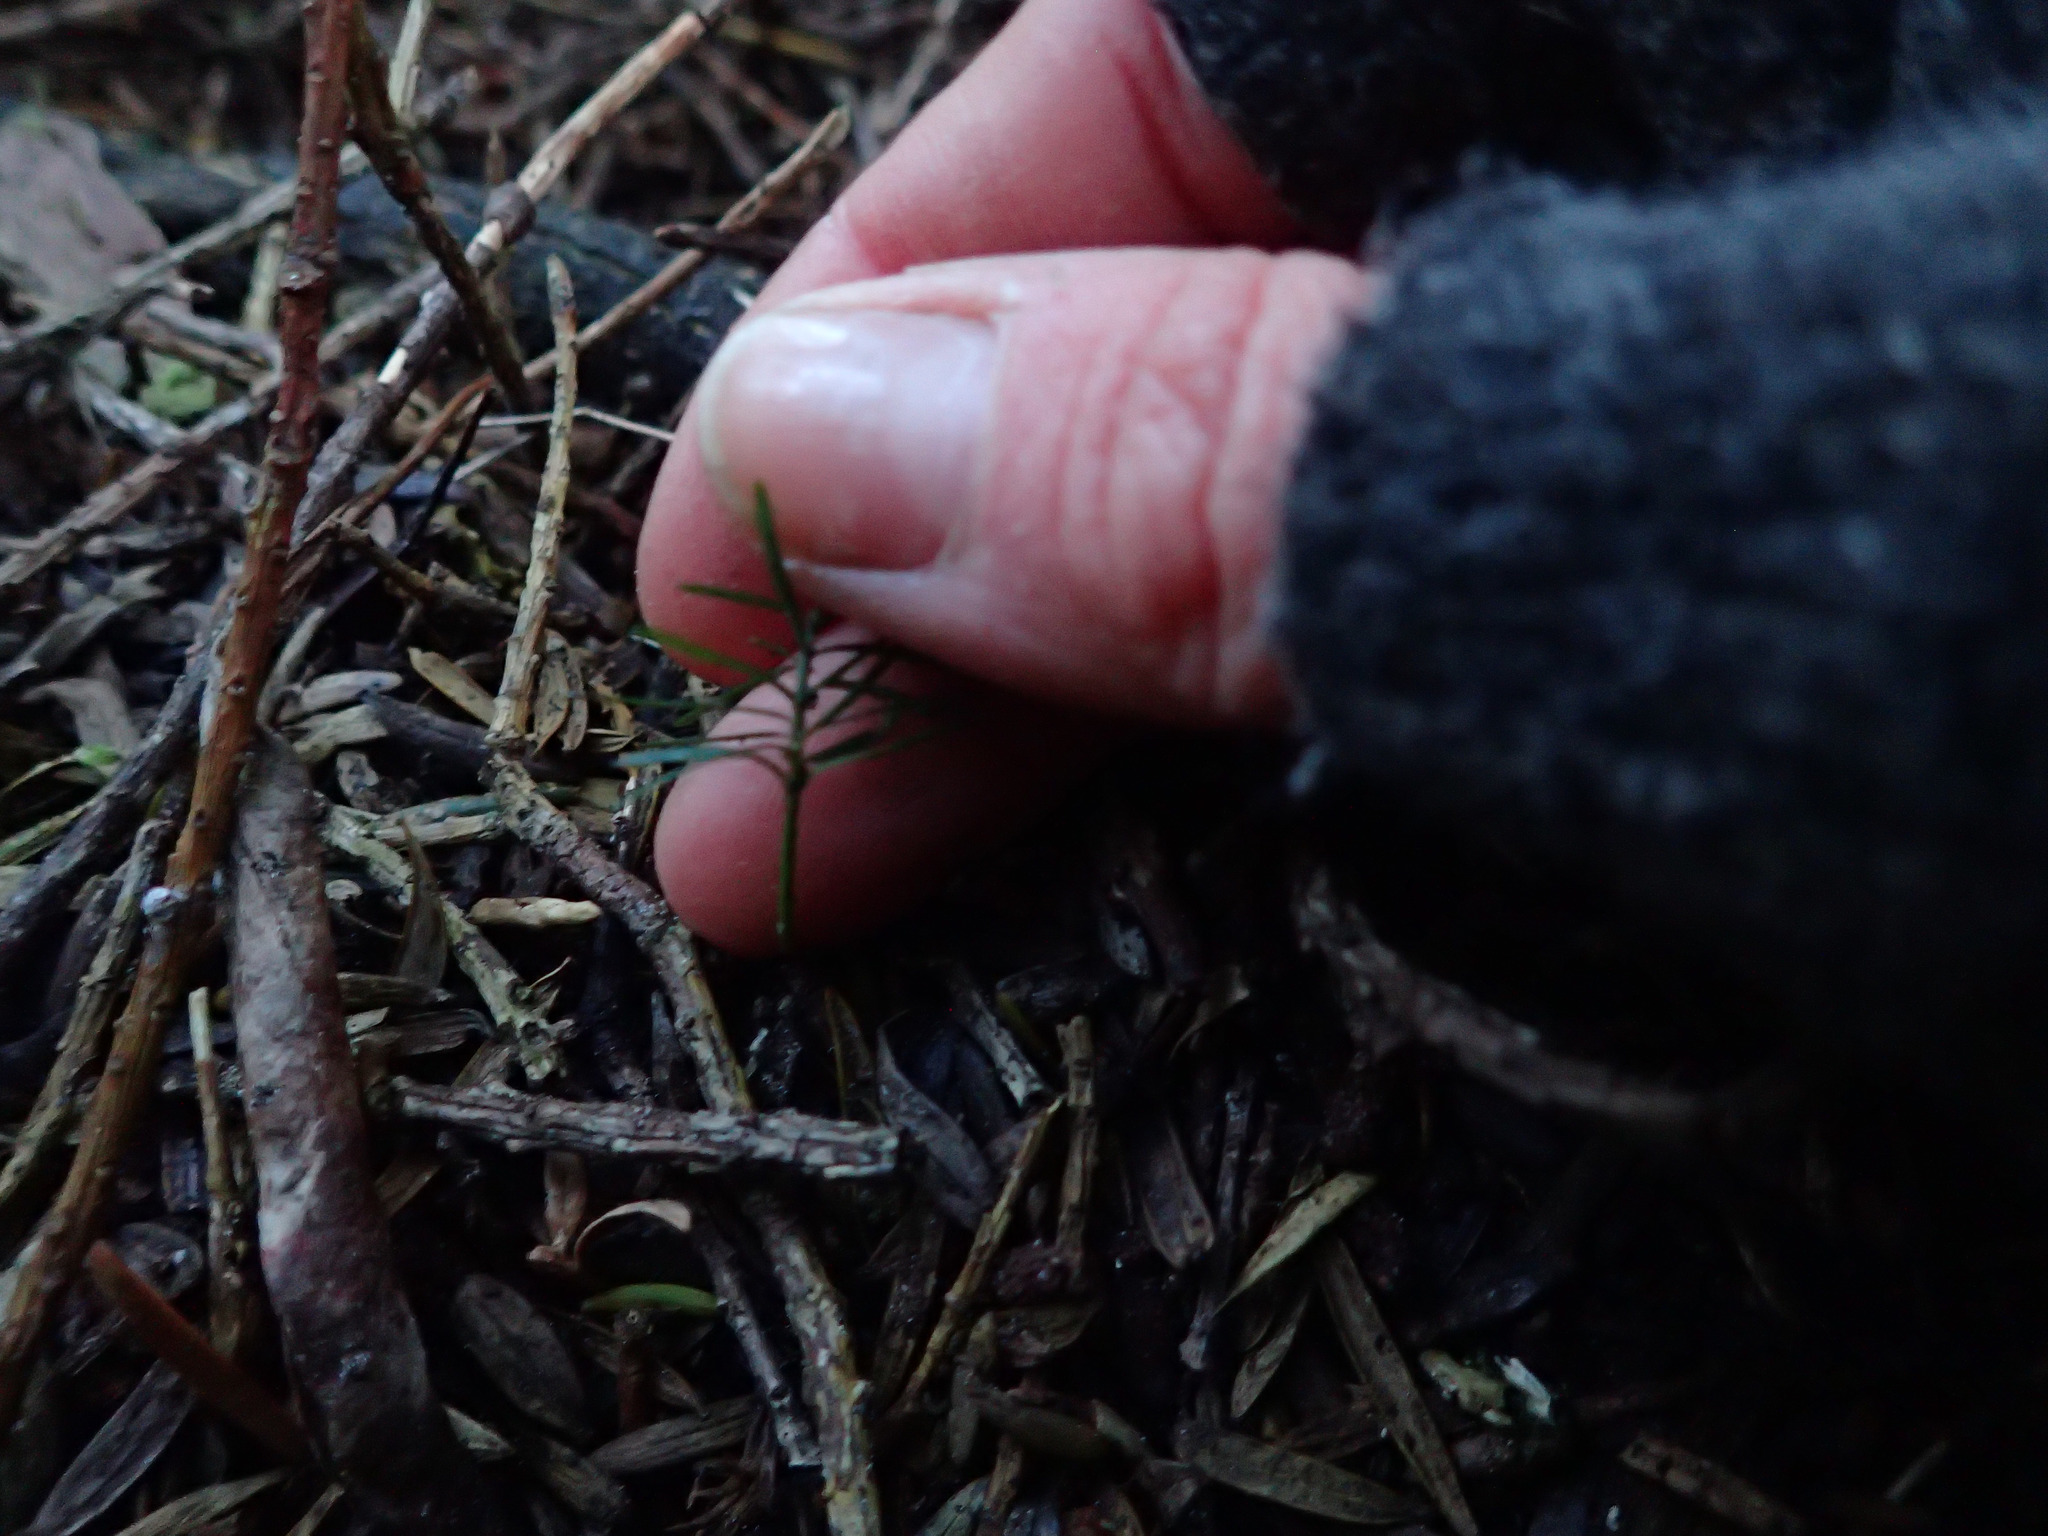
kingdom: Plantae
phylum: Tracheophyta
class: Pinopsida
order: Pinales
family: Podocarpaceae
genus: Prumnopitys
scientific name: Prumnopitys taxifolia
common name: Matai
